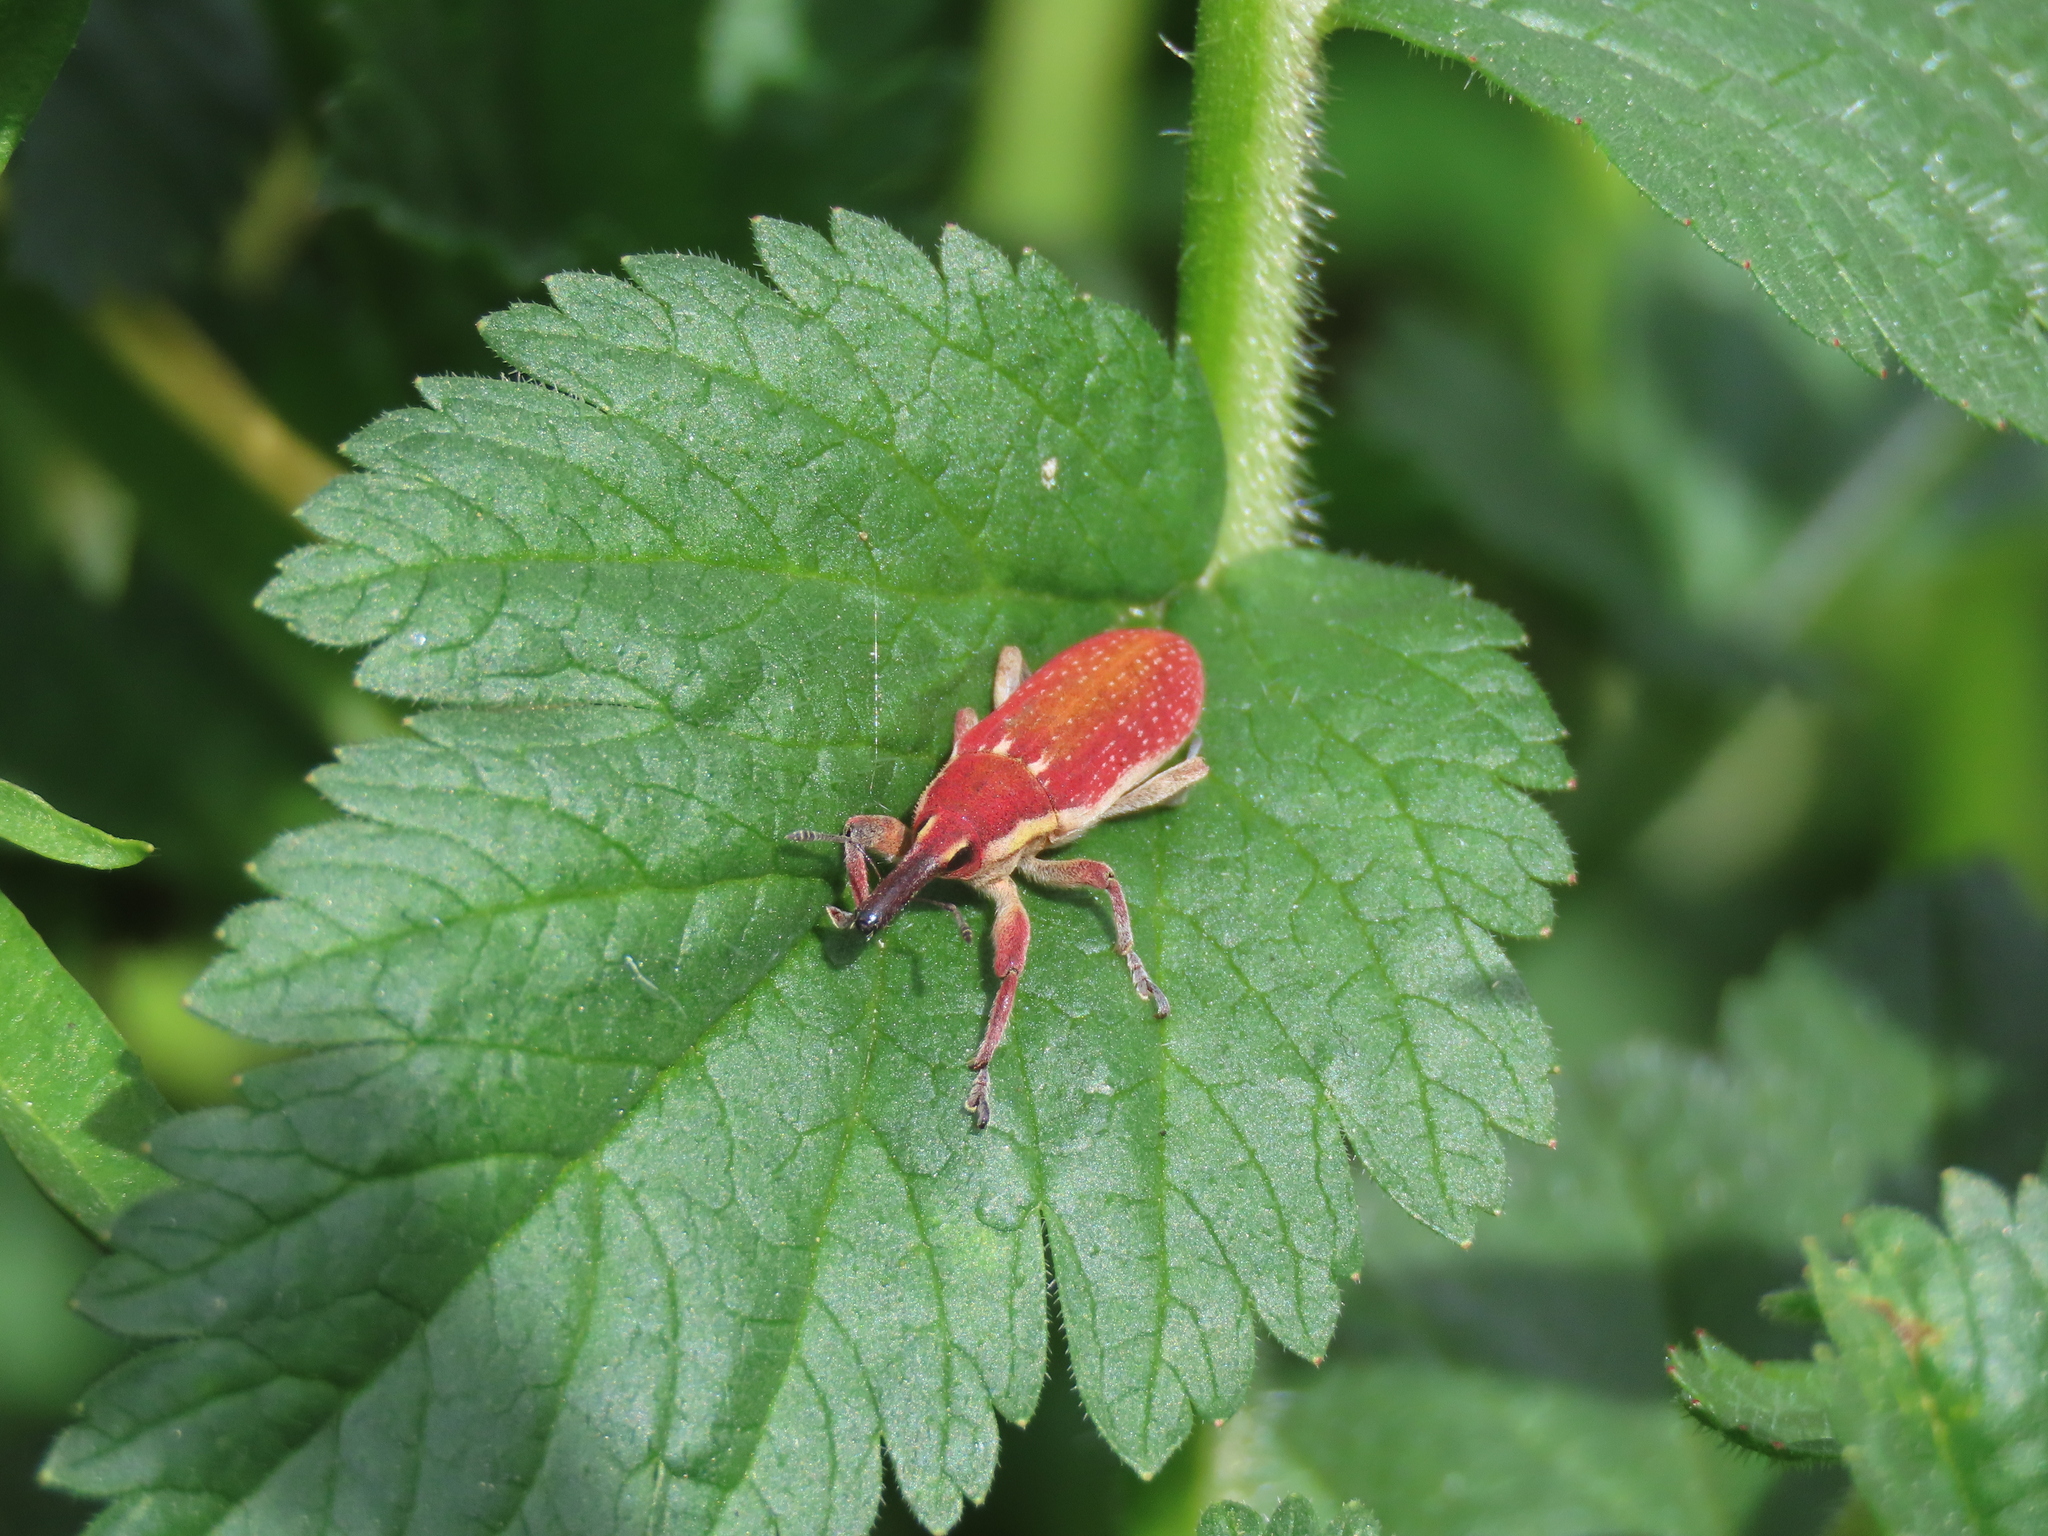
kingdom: Animalia
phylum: Arthropoda
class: Insecta
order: Coleoptera
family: Curculionidae
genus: Lixus
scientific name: Lixus vilis
